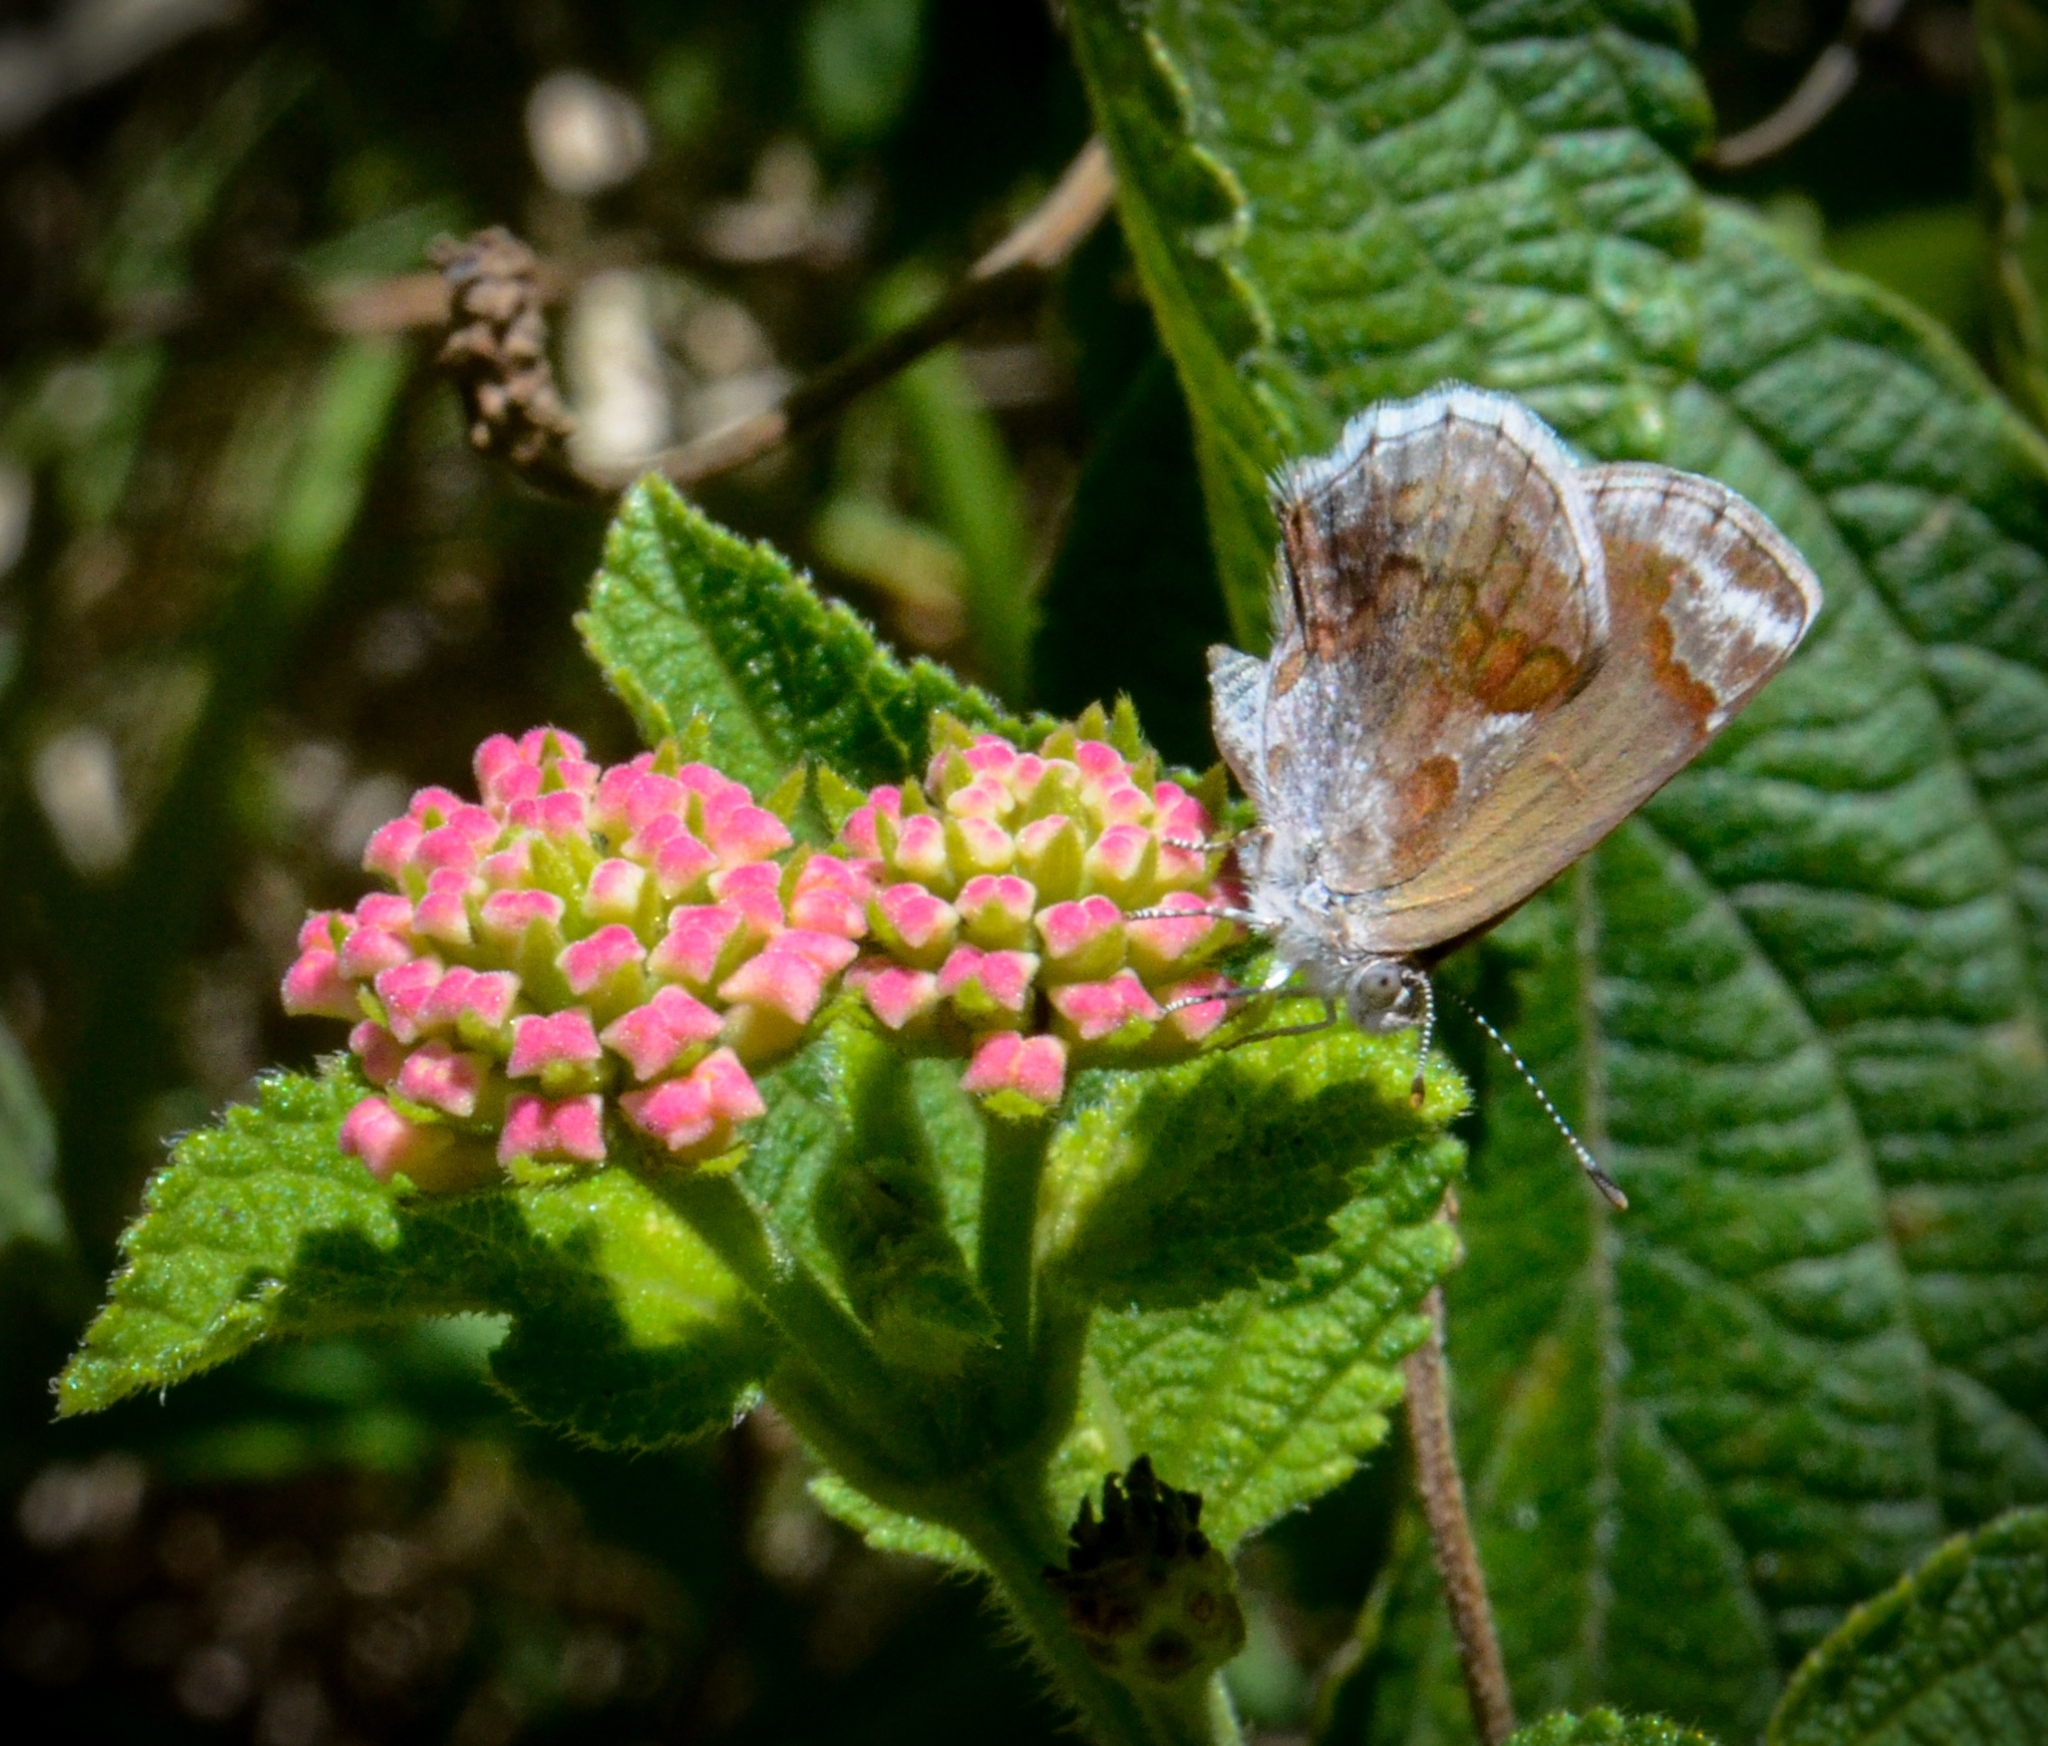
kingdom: Animalia
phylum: Arthropoda
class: Insecta
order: Lepidoptera
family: Lycaenidae
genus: Strymon
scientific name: Strymon bazochii
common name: Lantana scrub-hairstreak
